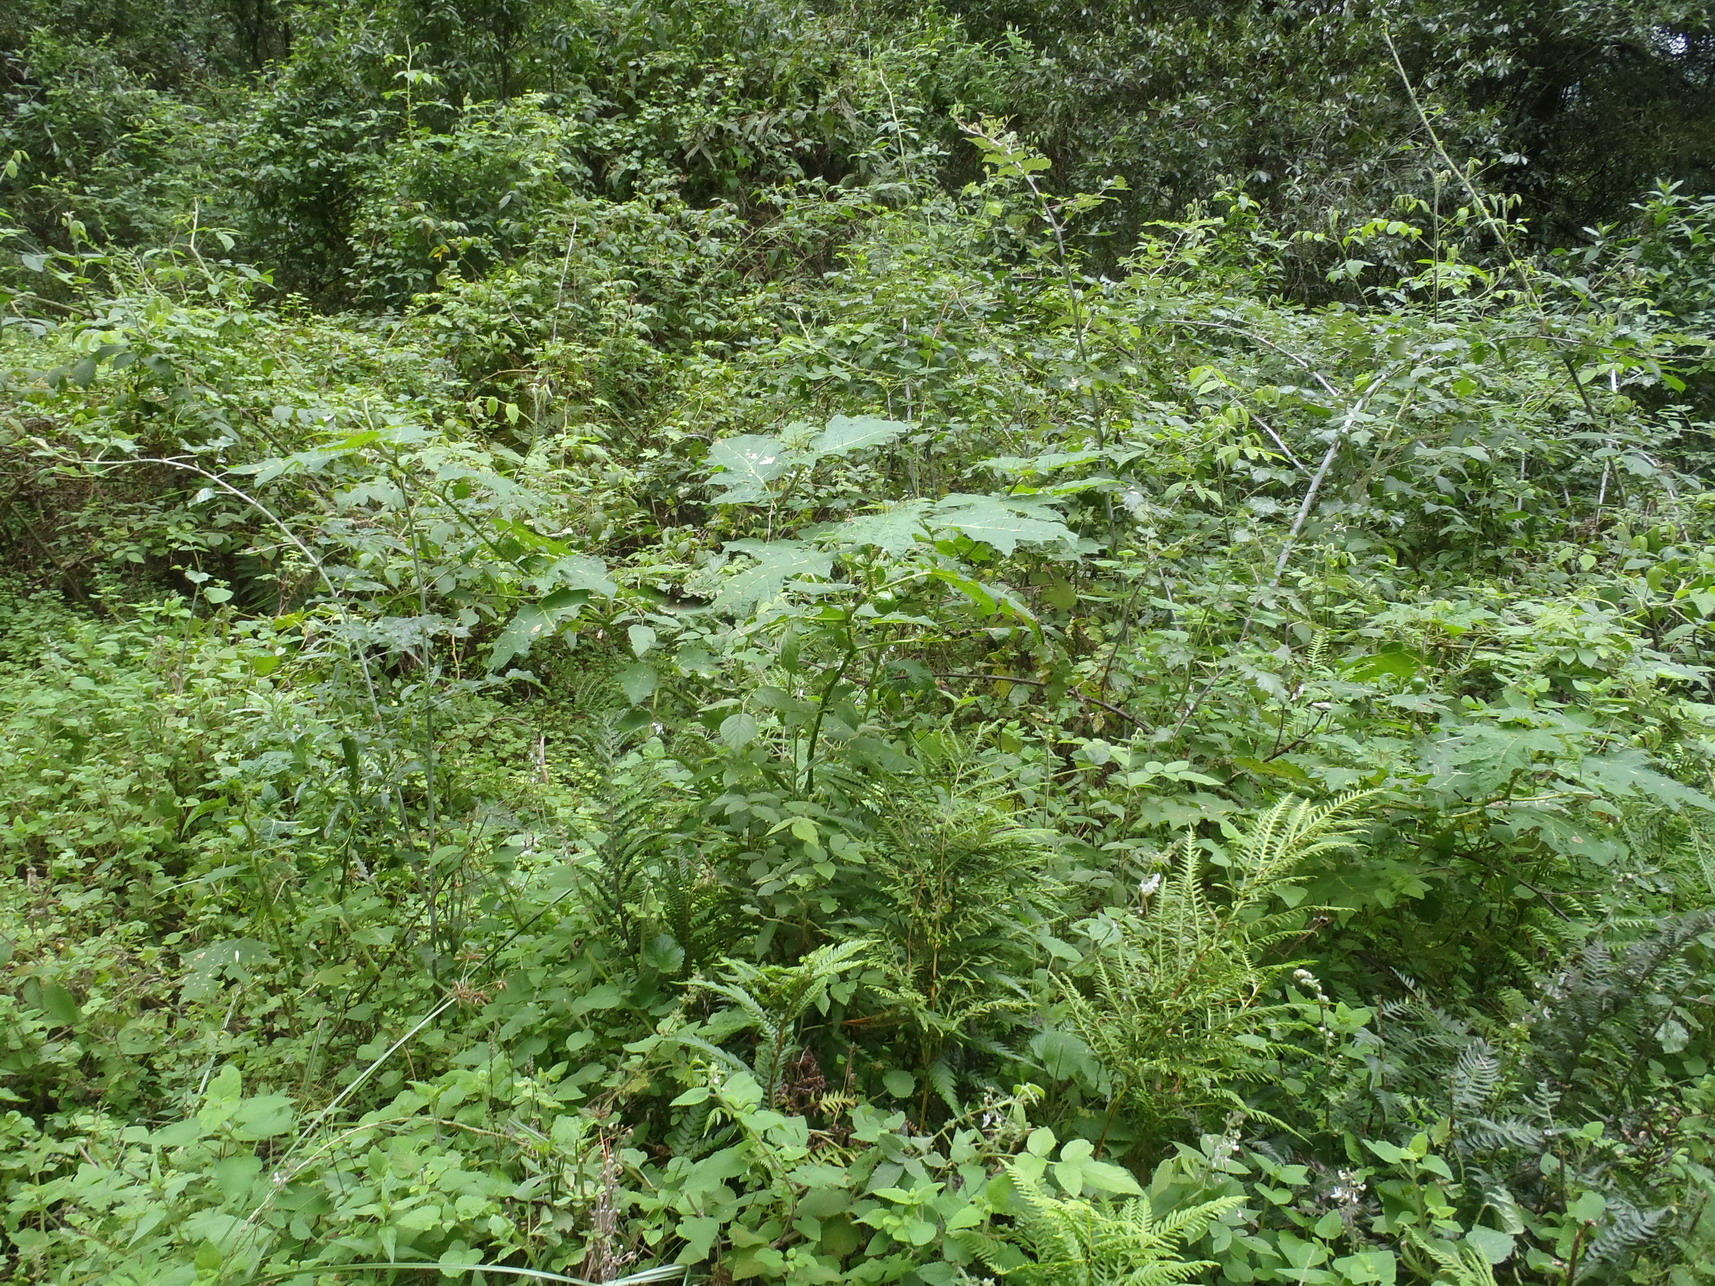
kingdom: Plantae
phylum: Tracheophyta
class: Magnoliopsida
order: Solanales
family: Solanaceae
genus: Solanum
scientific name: Solanum aculeatissimum
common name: Dutch eggplant
